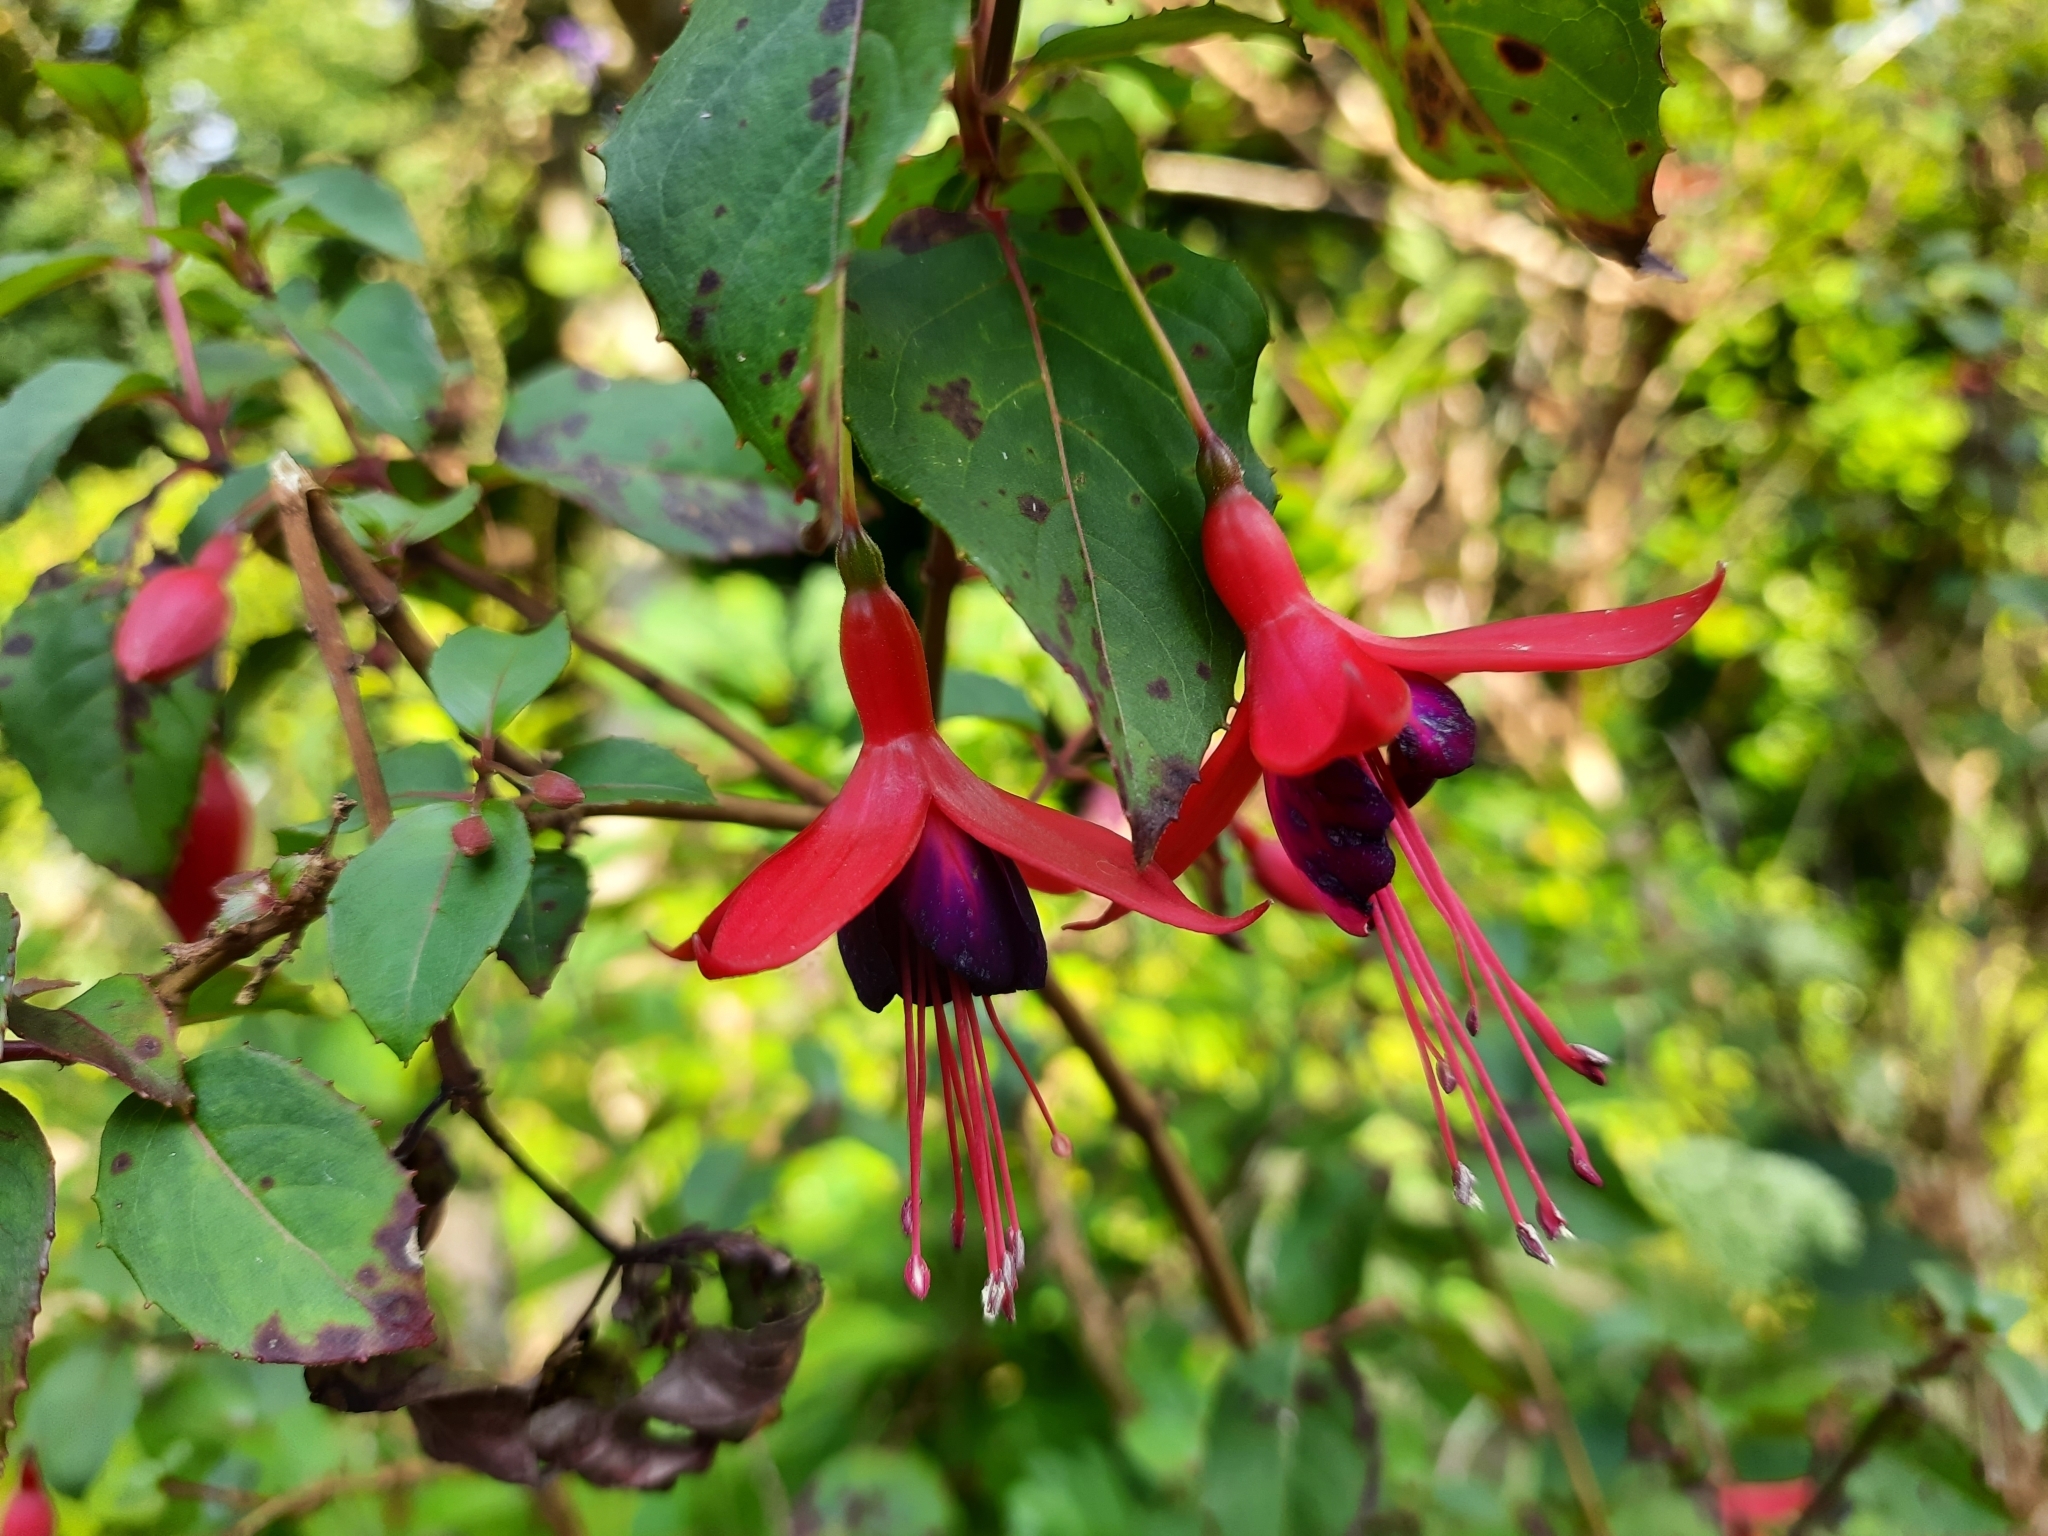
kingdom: Plantae
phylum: Tracheophyta
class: Magnoliopsida
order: Myrtales
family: Onagraceae
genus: Fuchsia
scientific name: Fuchsia magellanica
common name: Hardy fuchsia
